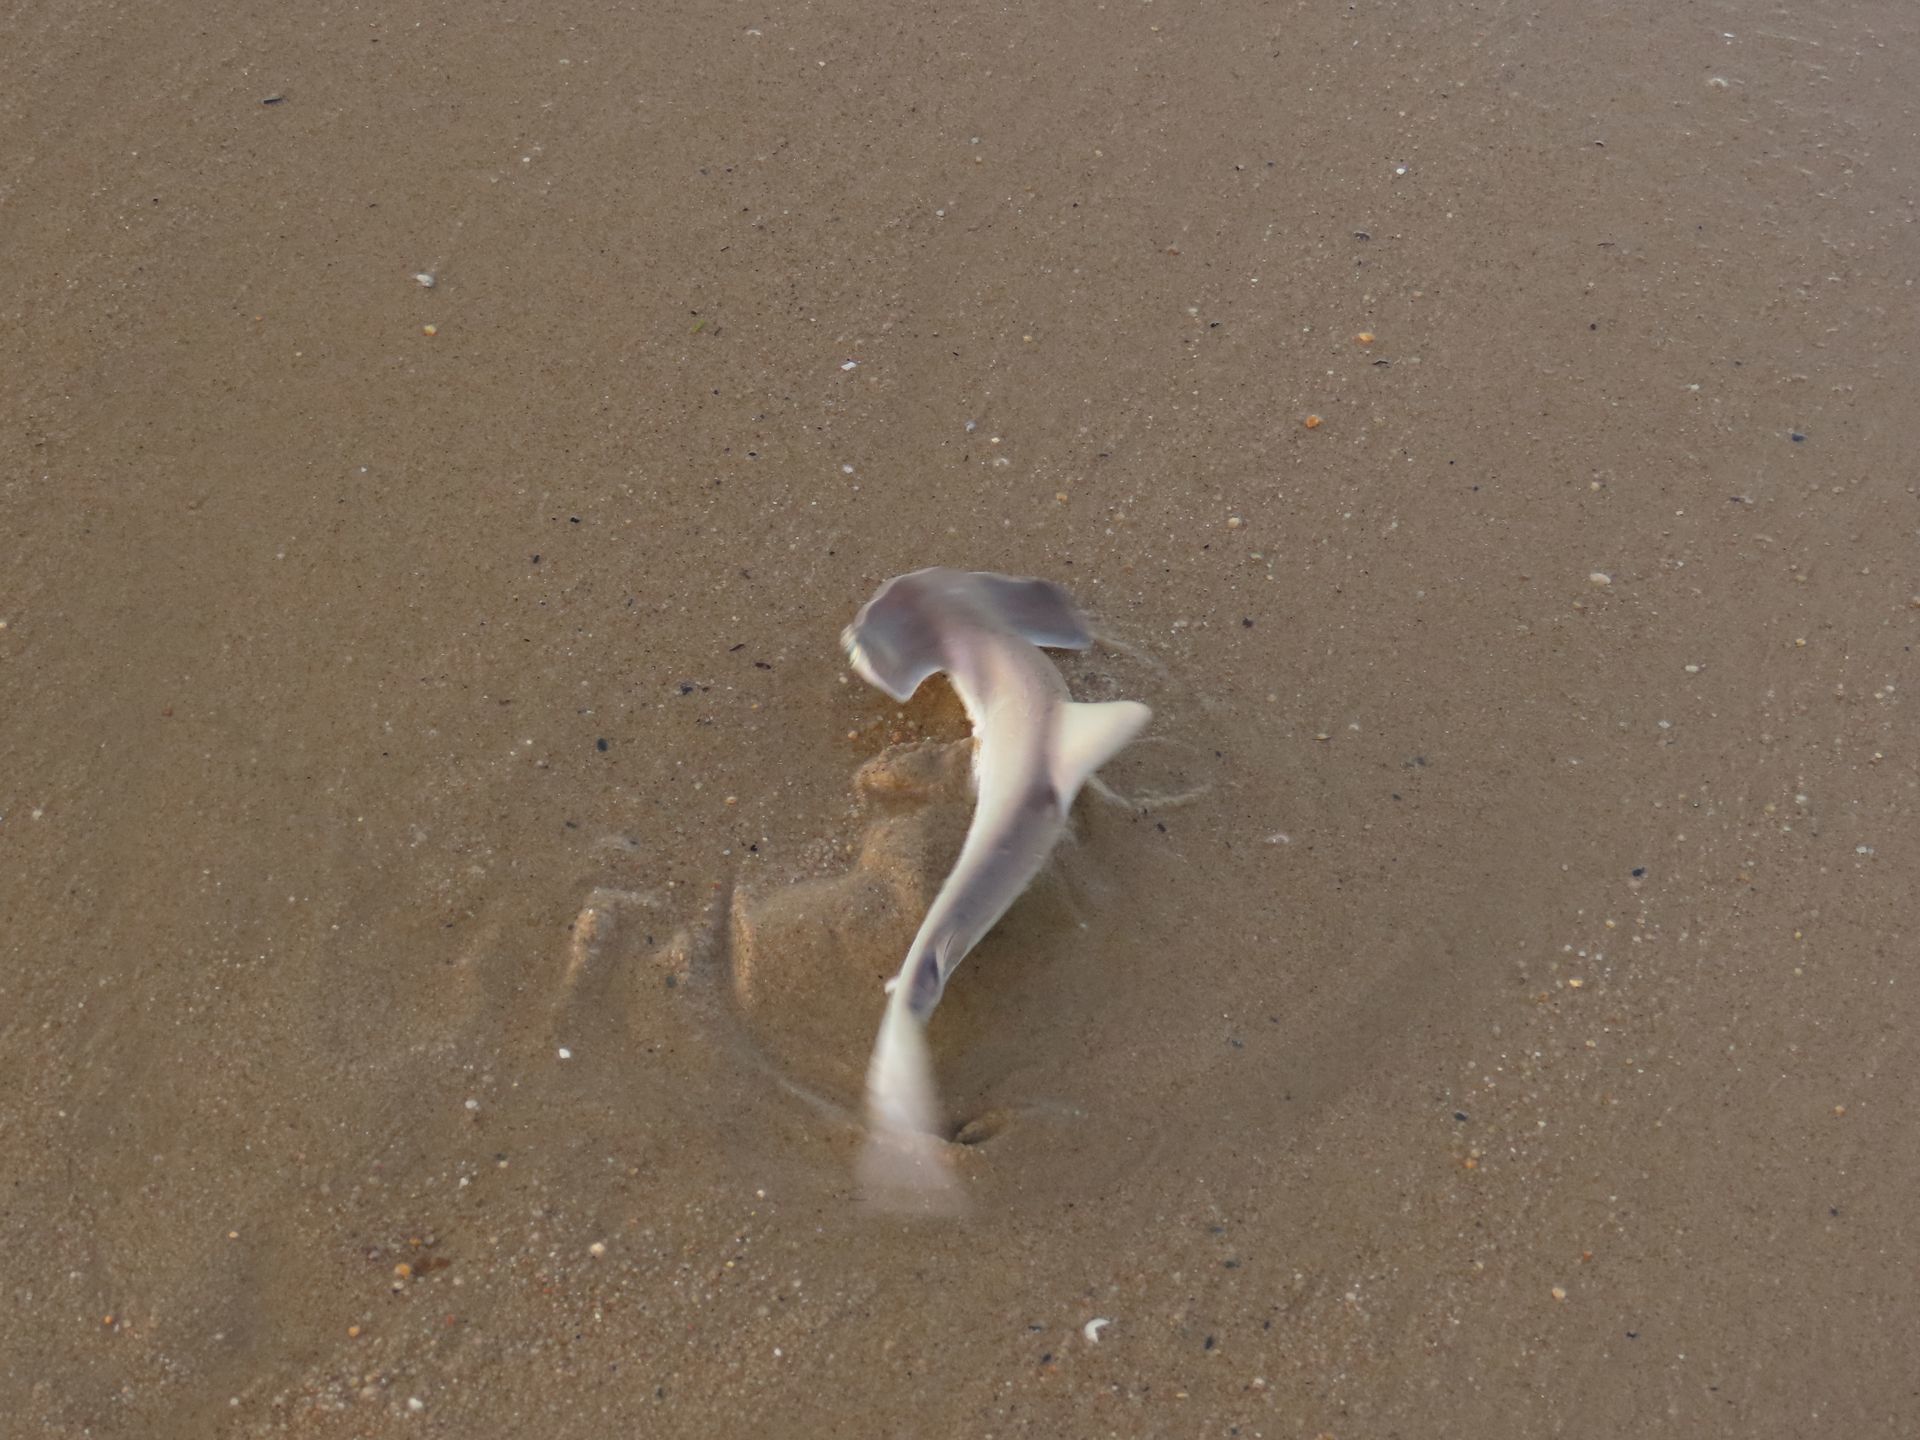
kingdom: Animalia
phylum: Chordata
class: Elasmobranchii
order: Carcharhiniformes
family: Sphyrnidae
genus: Sphyrna
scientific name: Sphyrna lewini
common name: Scalloped hammerhead
